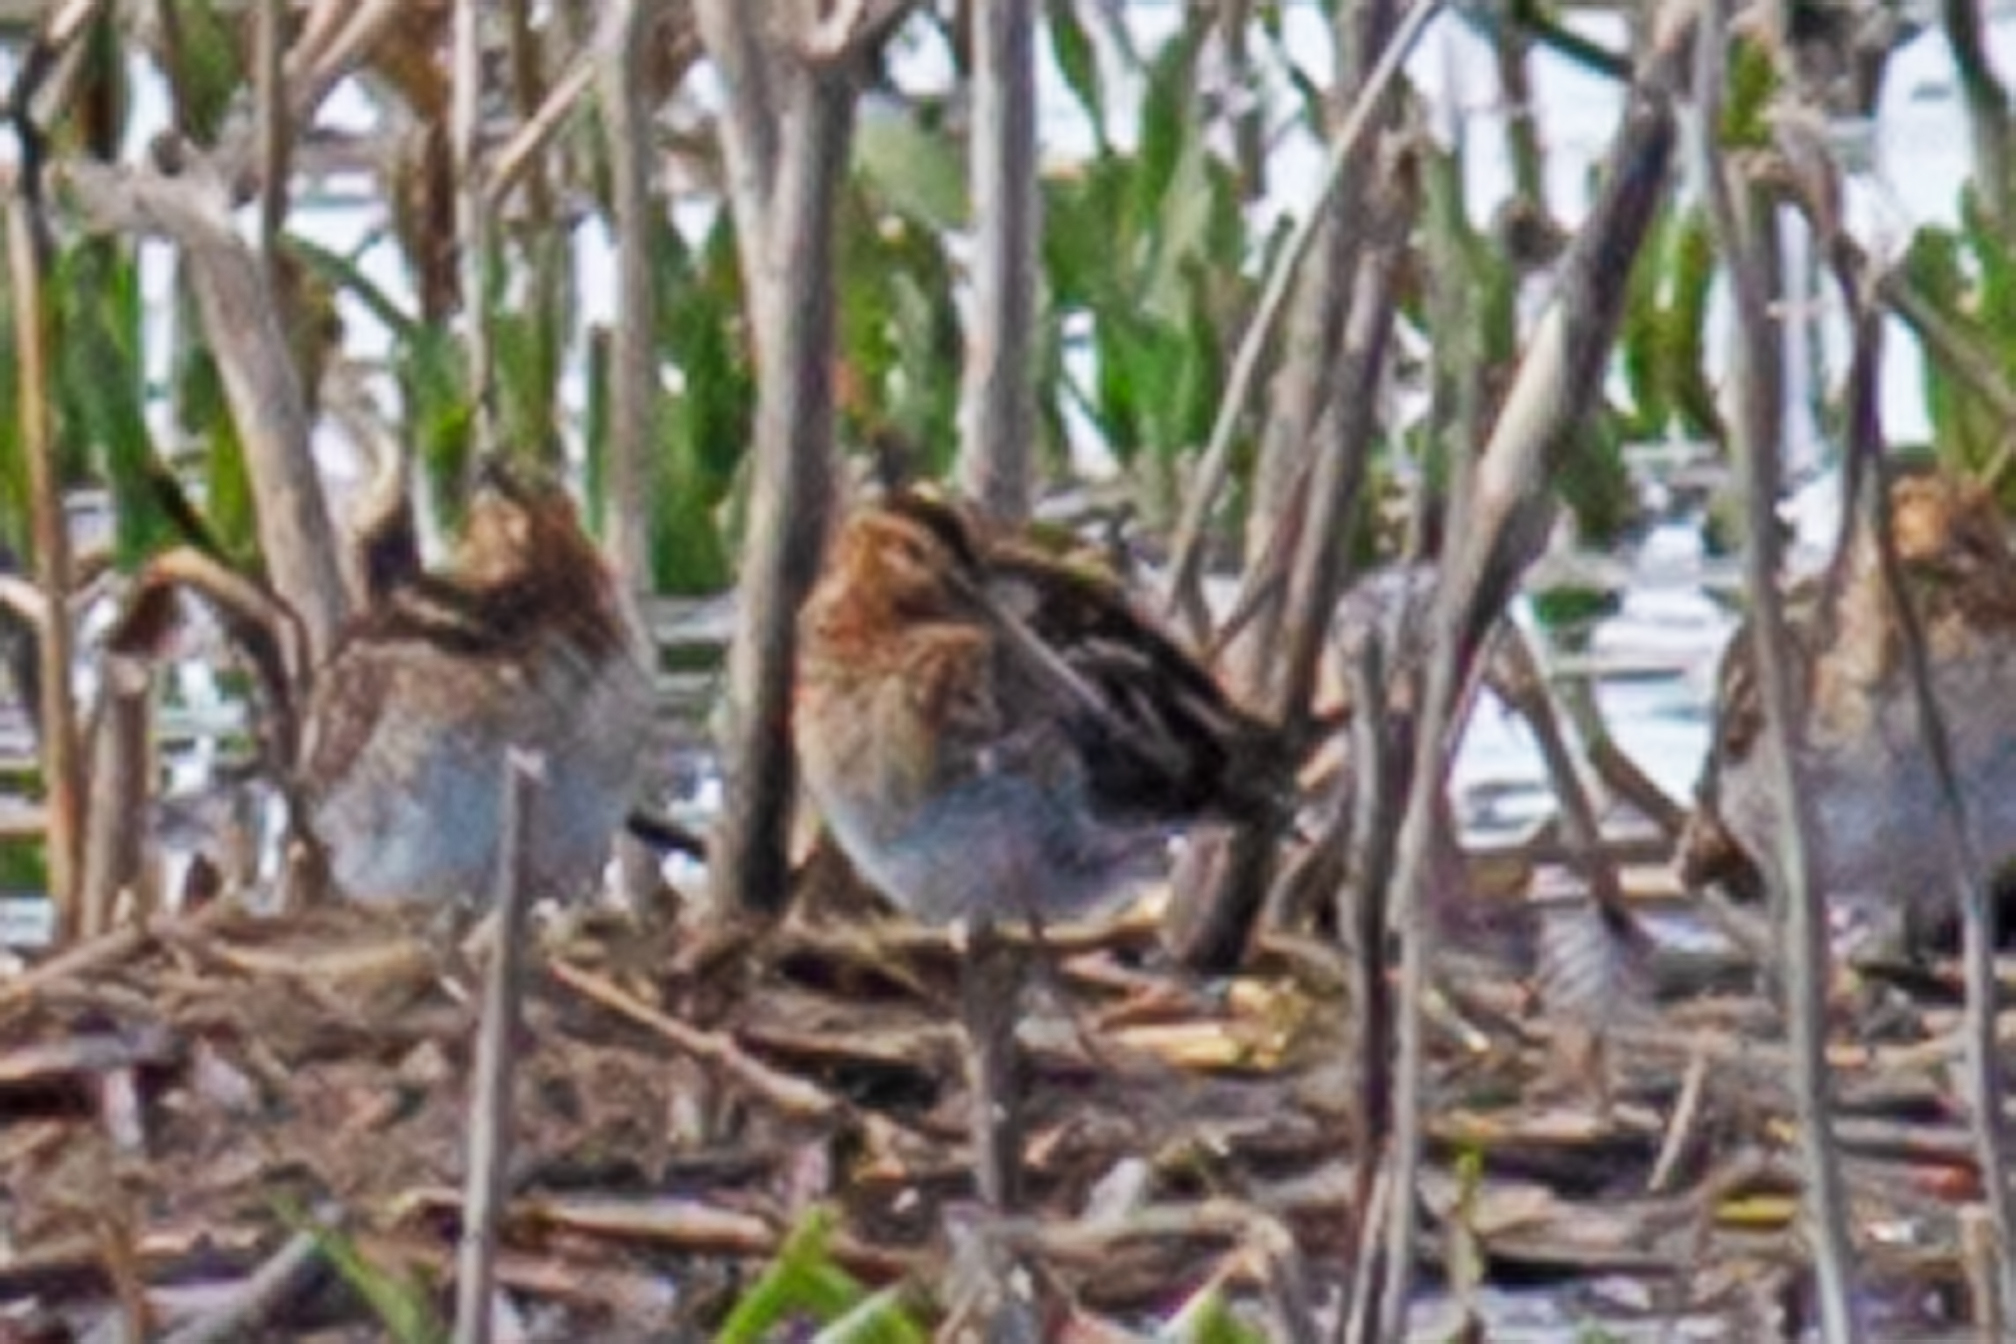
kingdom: Animalia
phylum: Chordata
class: Aves
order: Charadriiformes
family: Scolopacidae
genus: Gallinago
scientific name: Gallinago delicata
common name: Wilson's snipe
